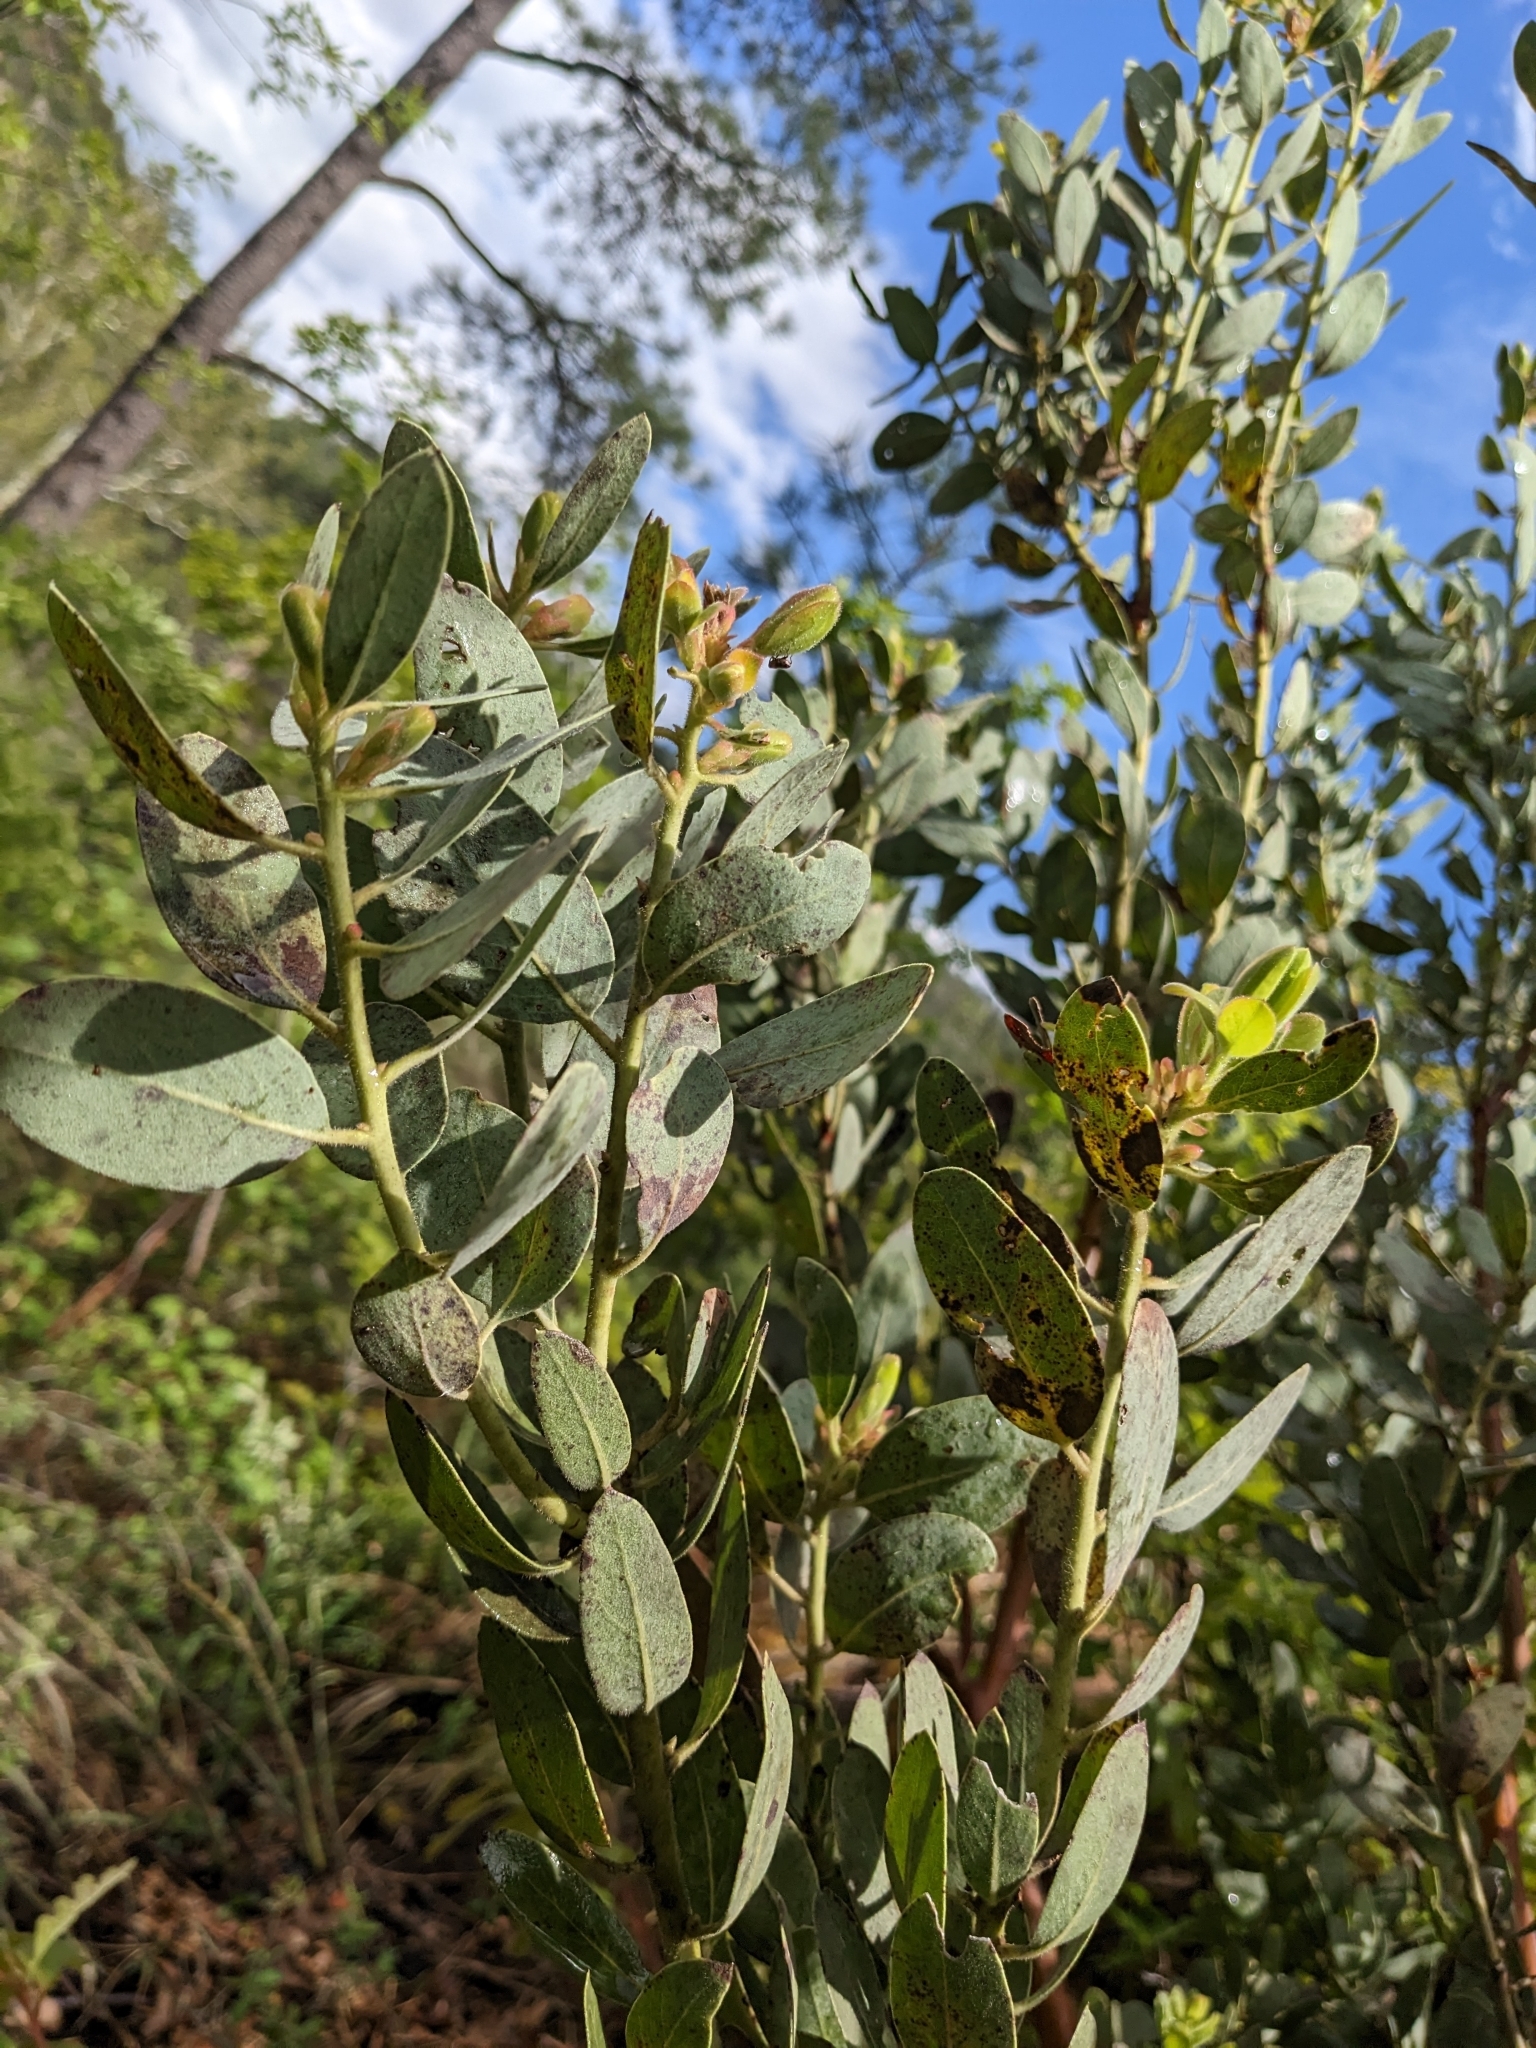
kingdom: Plantae
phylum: Tracheophyta
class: Magnoliopsida
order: Ericales
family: Ericaceae
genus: Arctostaphylos
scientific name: Arctostaphylos pringlei
